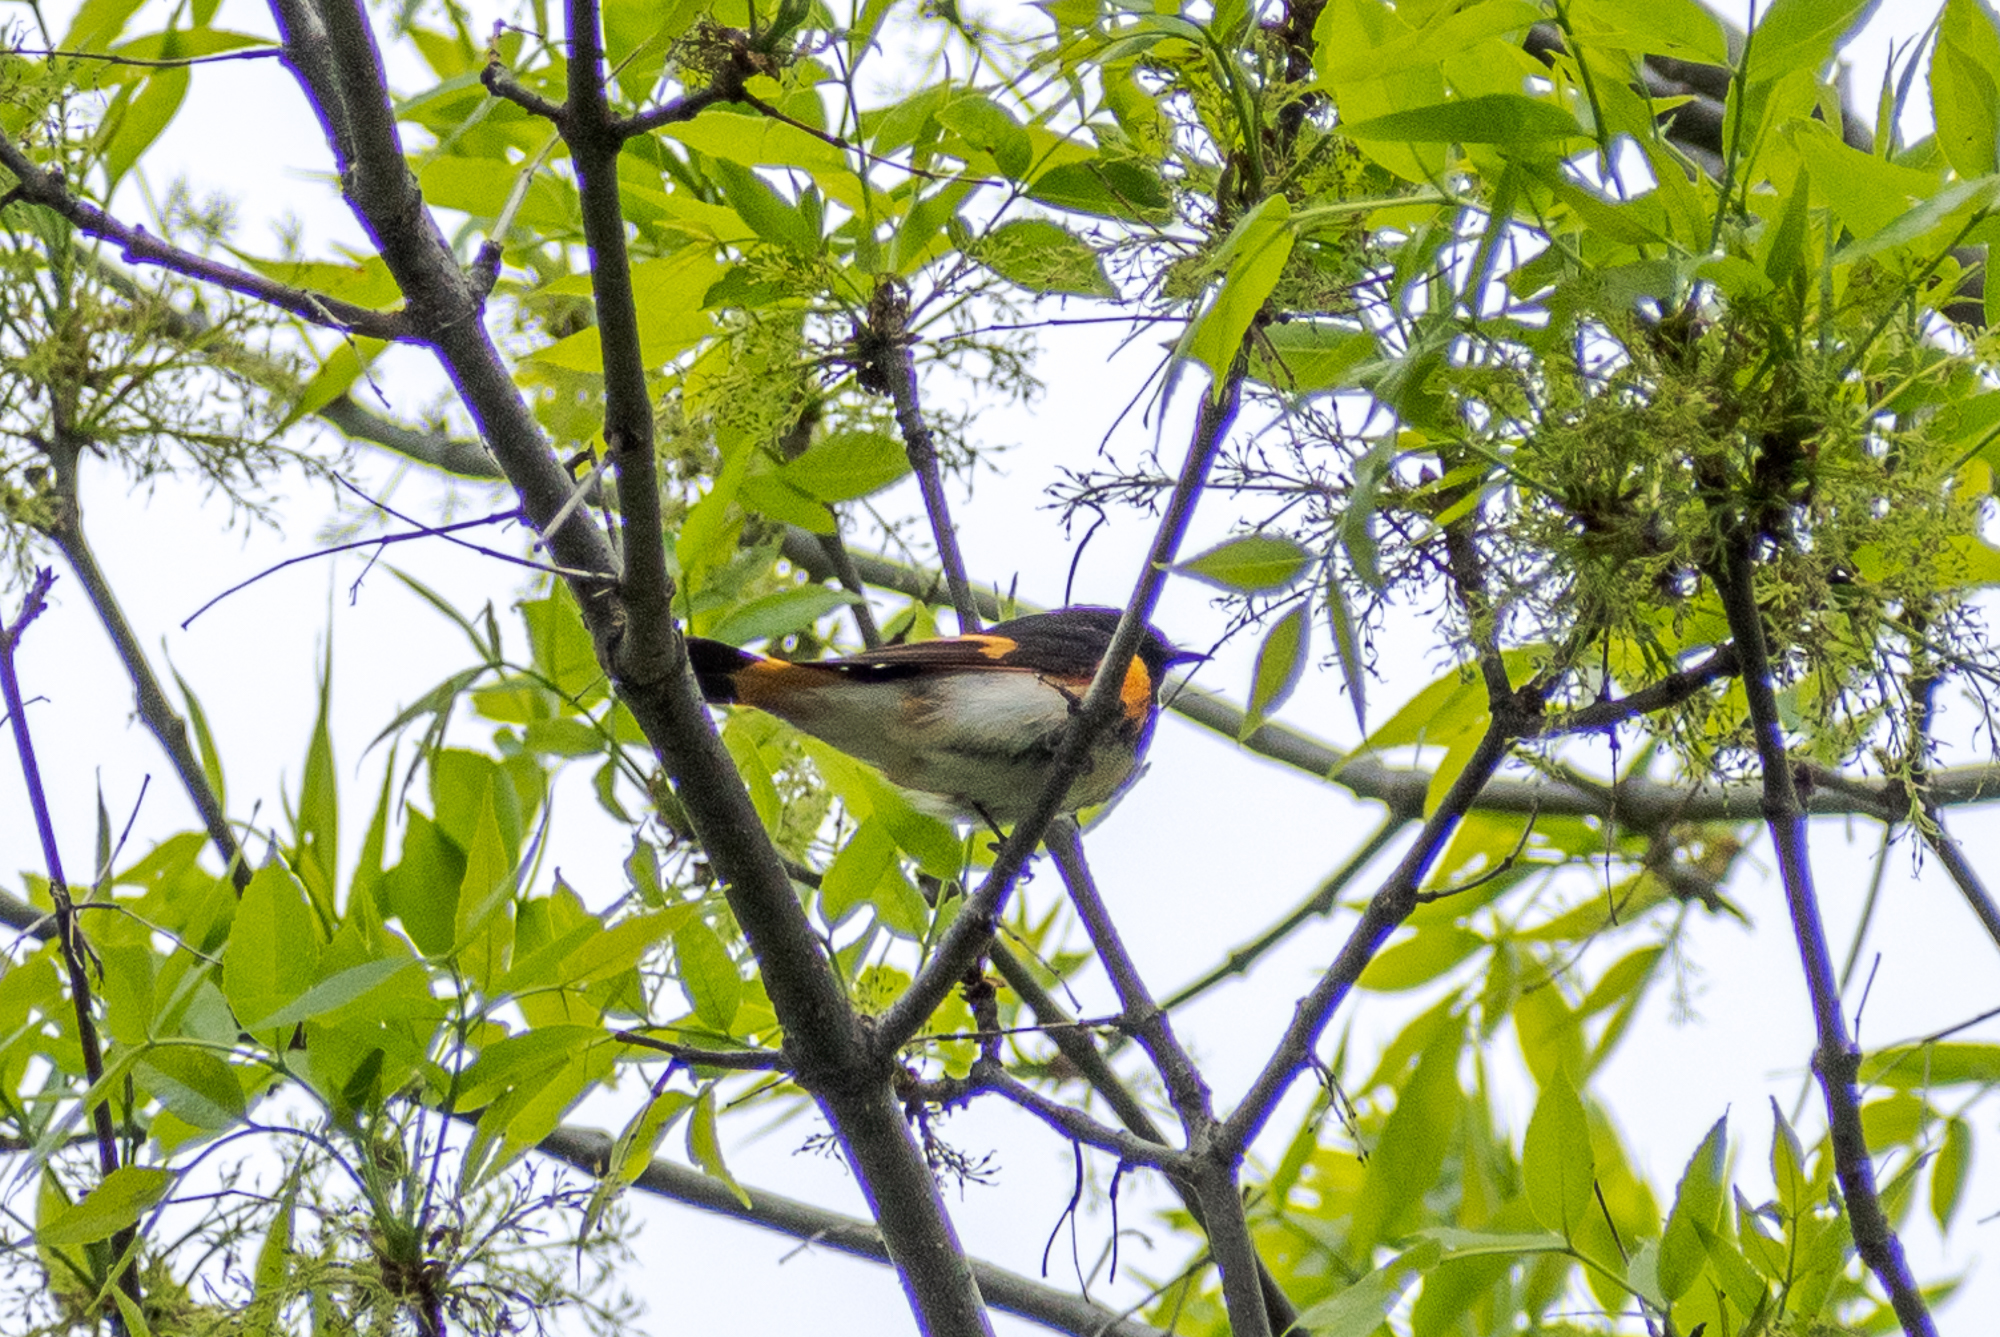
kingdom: Animalia
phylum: Chordata
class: Aves
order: Passeriformes
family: Parulidae
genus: Setophaga
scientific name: Setophaga ruticilla
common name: American redstart
